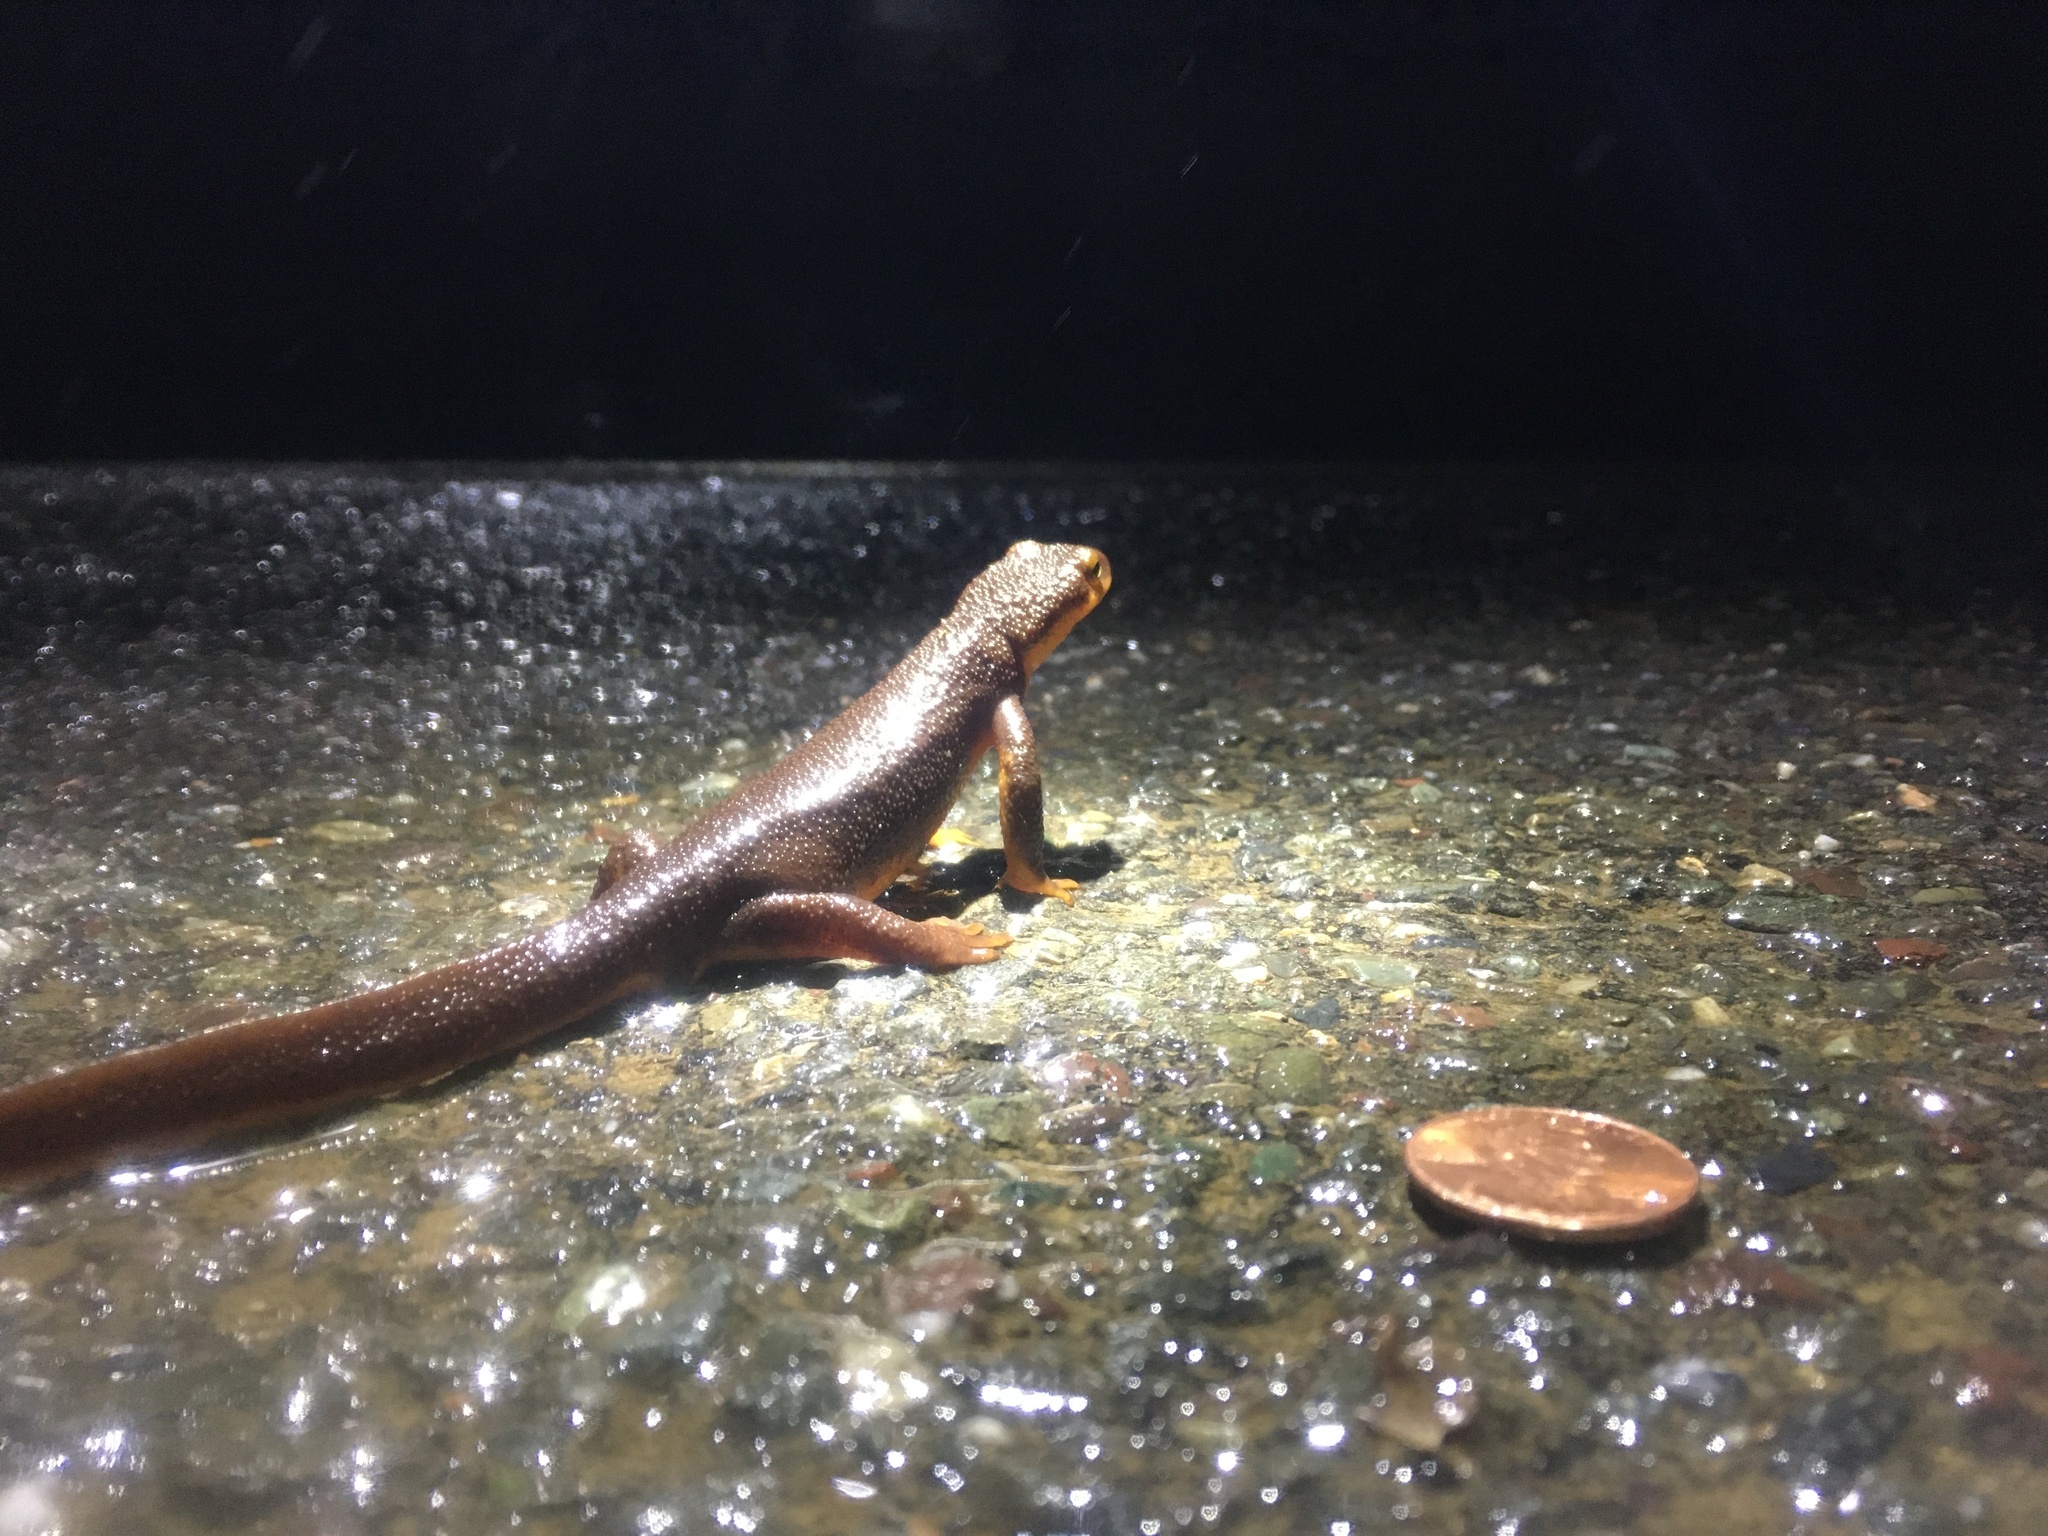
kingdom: Animalia
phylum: Chordata
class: Amphibia
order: Caudata
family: Salamandridae
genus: Taricha
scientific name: Taricha torosa
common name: California newt
